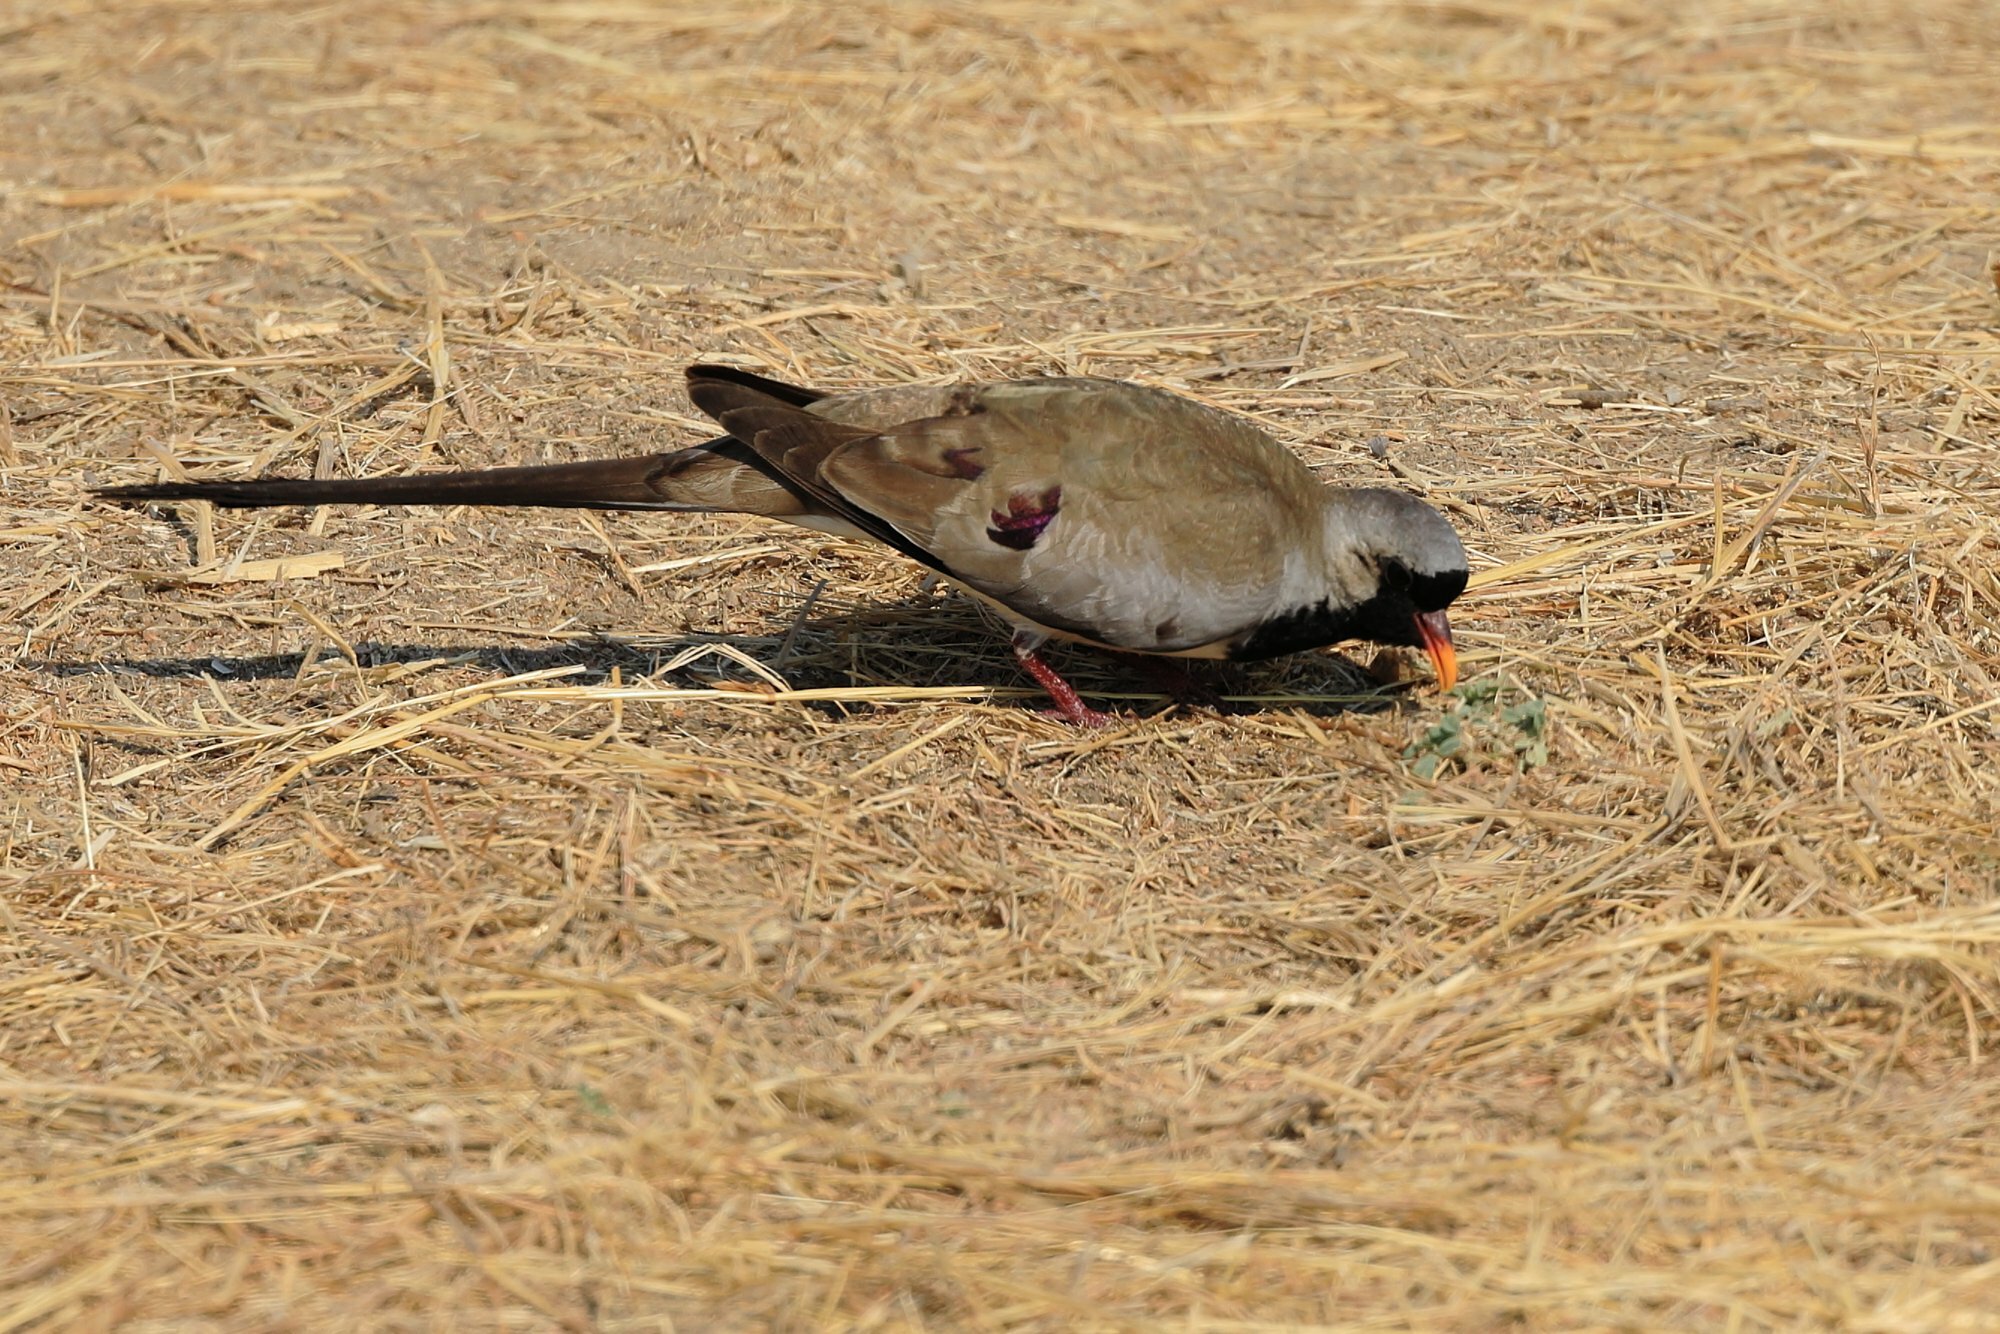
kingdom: Animalia
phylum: Chordata
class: Aves
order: Columbiformes
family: Columbidae
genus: Oena
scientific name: Oena capensis
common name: Namaqua dove
